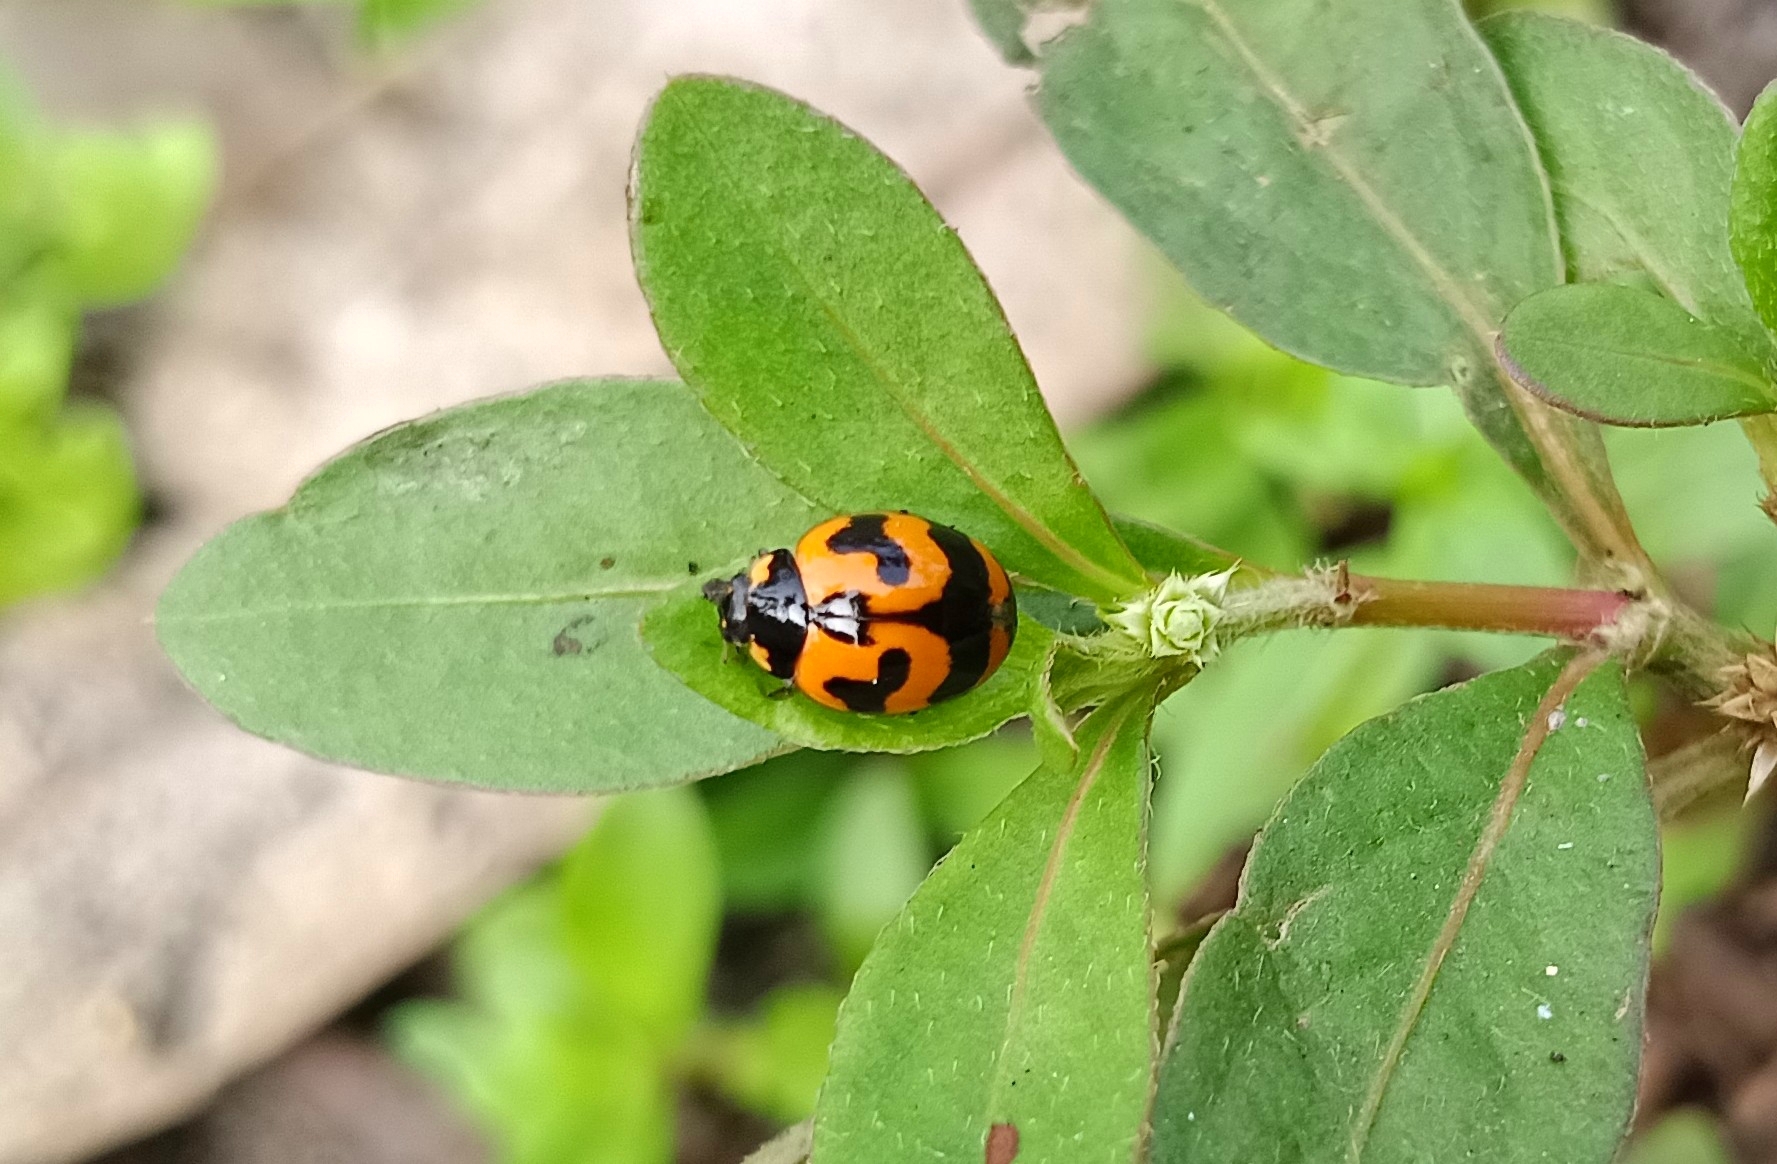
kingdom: Animalia
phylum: Arthropoda
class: Insecta
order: Coleoptera
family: Coccinellidae
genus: Coccinella
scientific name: Coccinella transversalis
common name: Transverse lady beetle
